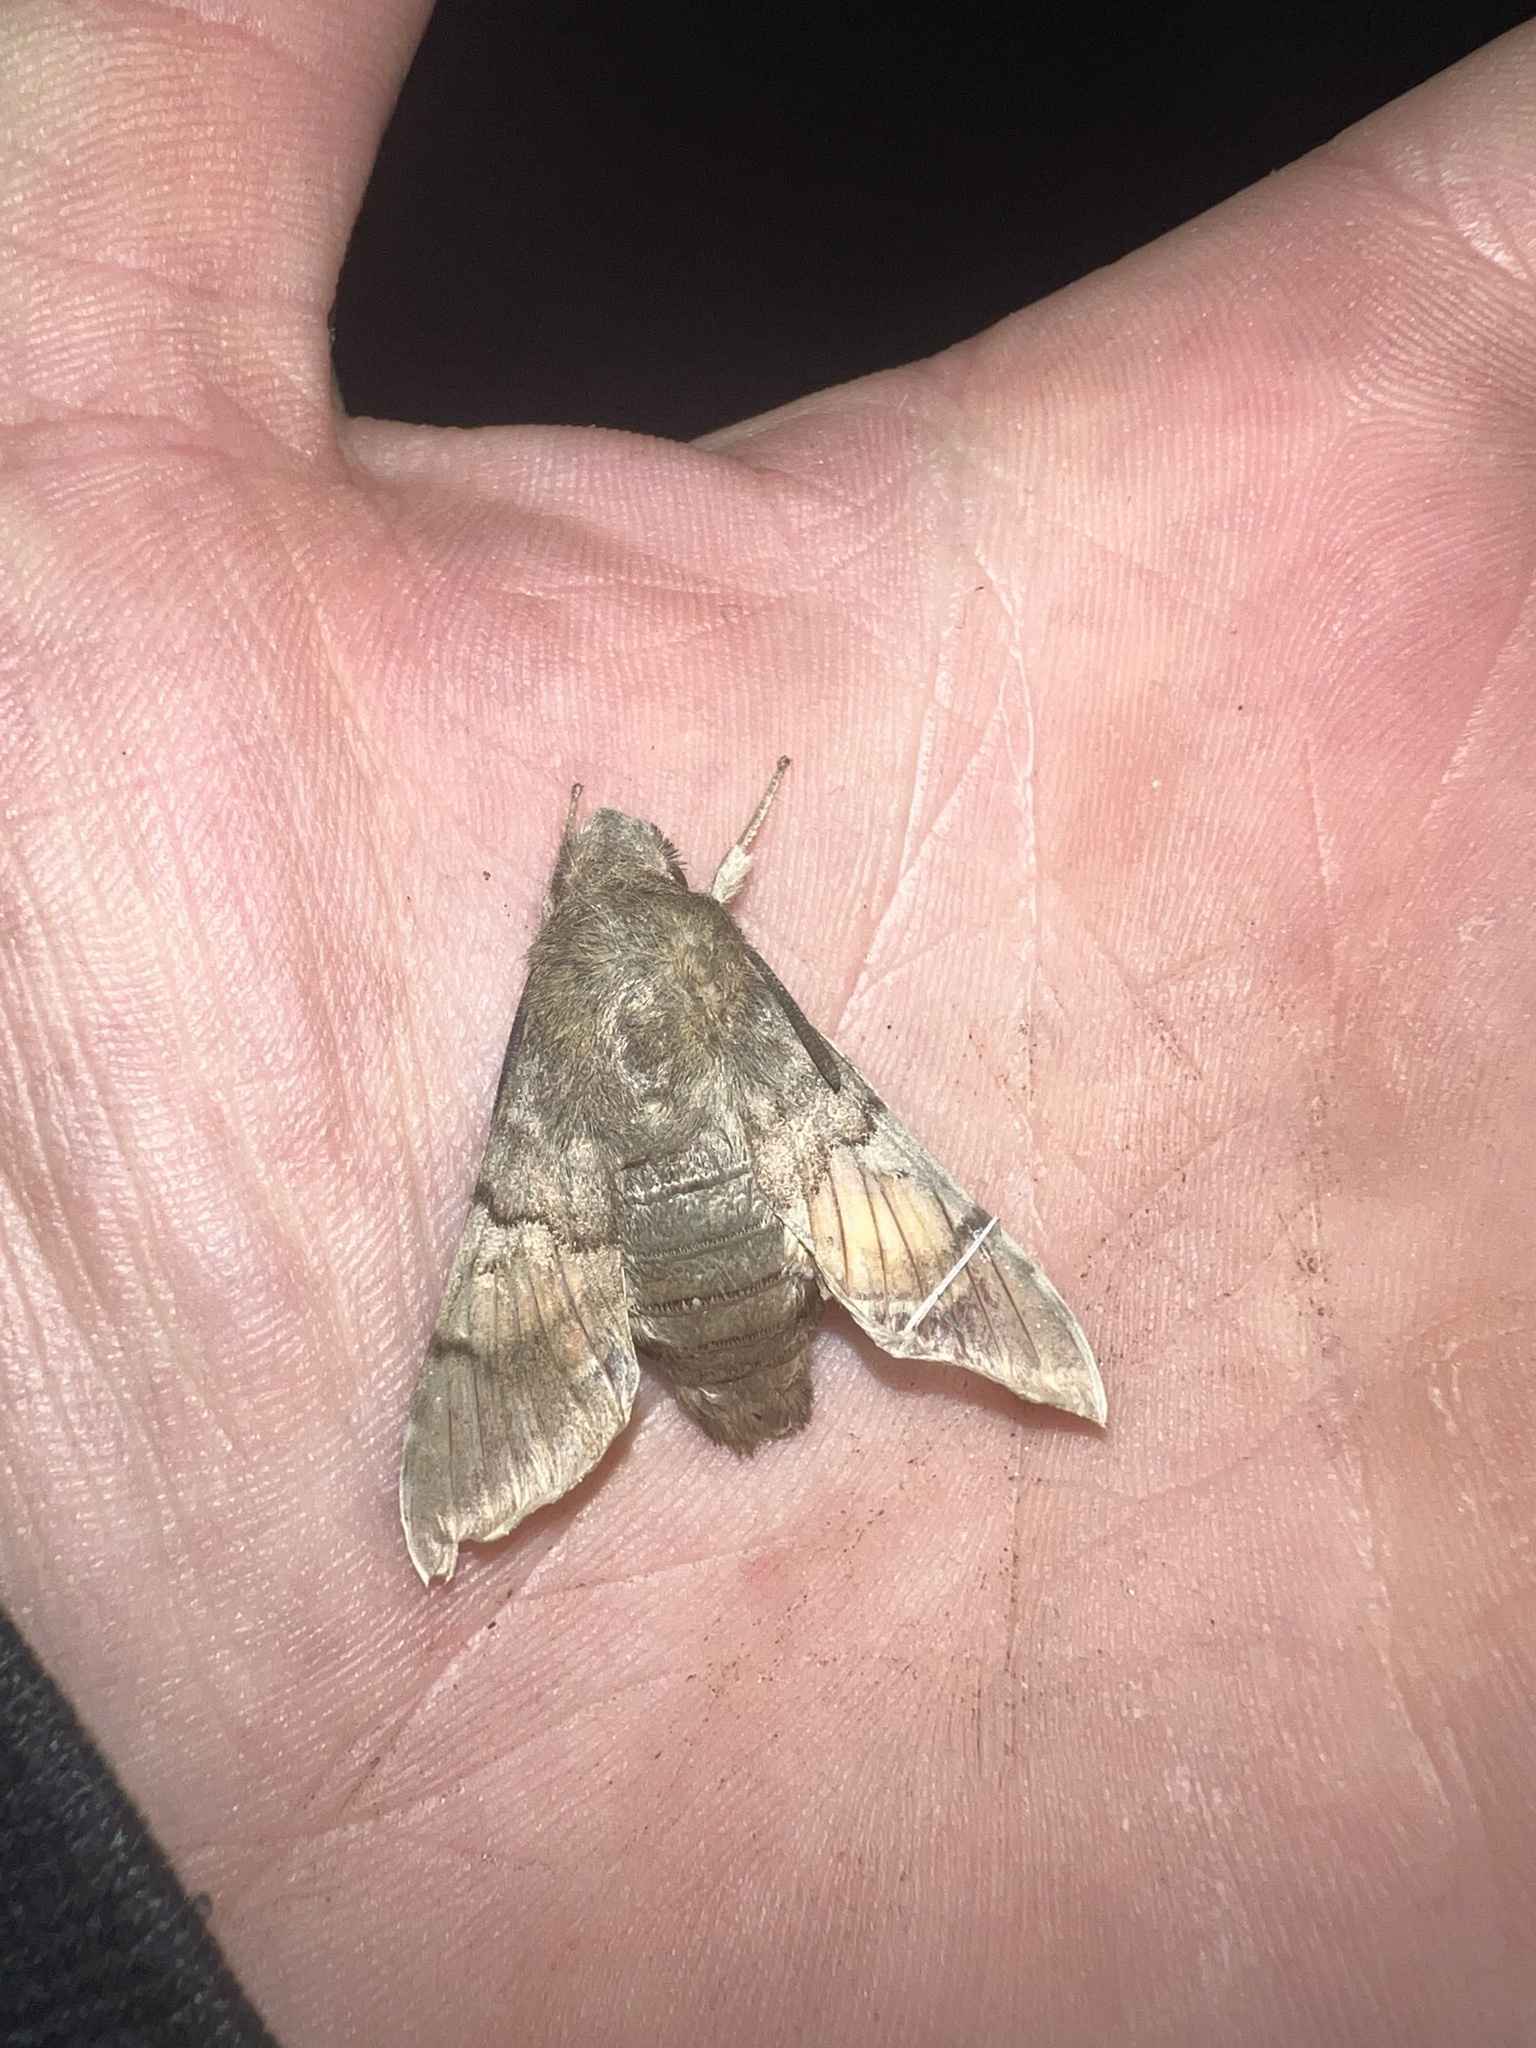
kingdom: Animalia
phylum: Arthropoda
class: Insecta
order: Lepidoptera
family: Sphingidae
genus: Macroglossum
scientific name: Macroglossum stellatarum
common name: Humming-bird hawk-moth
